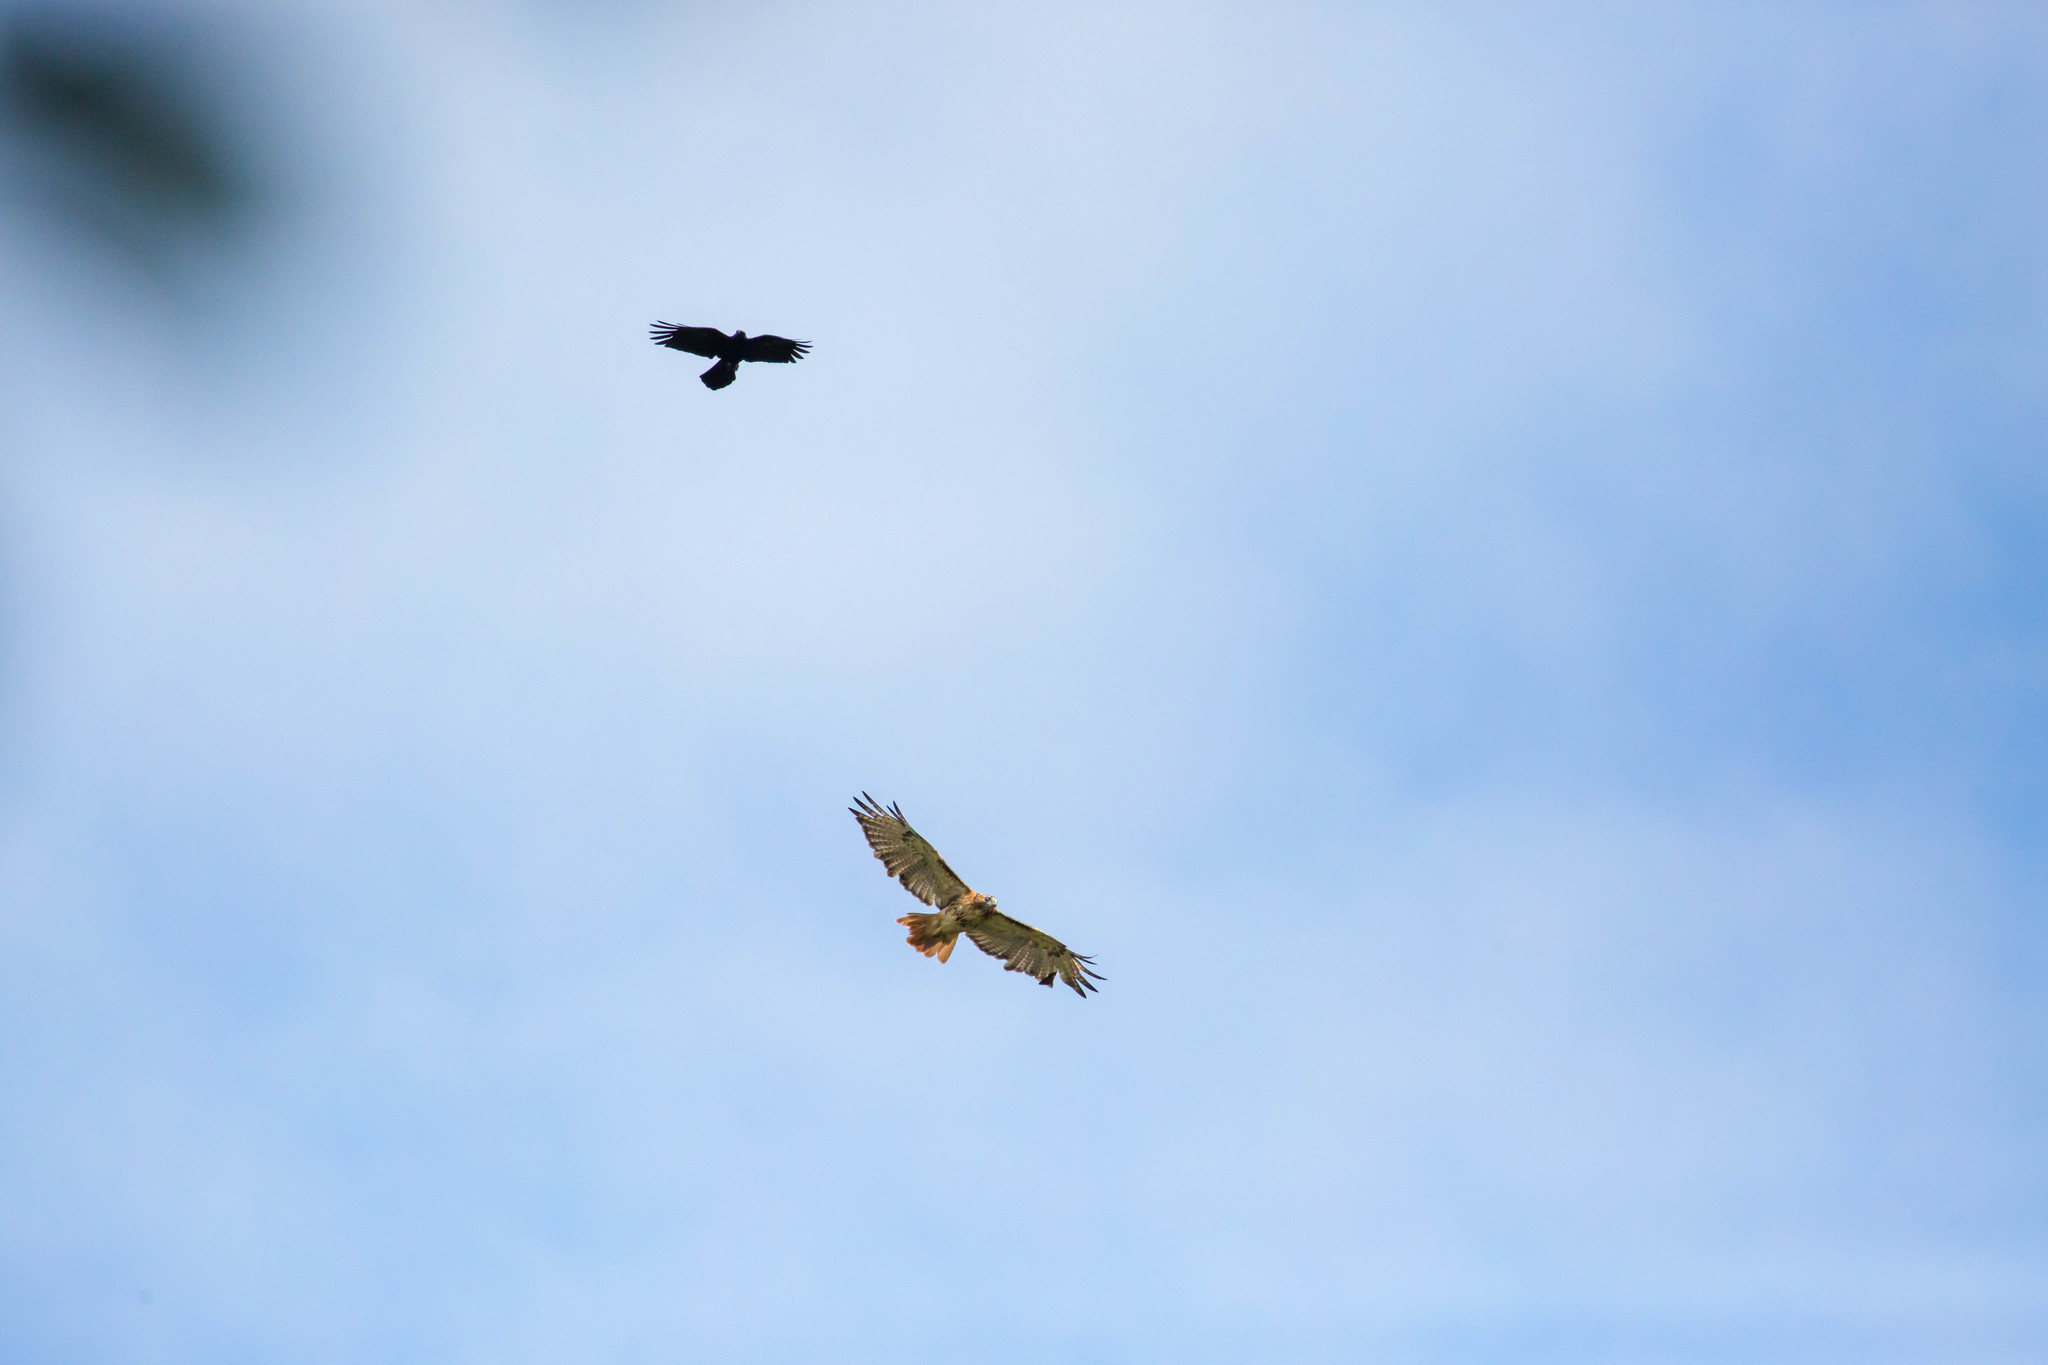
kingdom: Animalia
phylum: Chordata
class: Aves
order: Accipitriformes
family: Accipitridae
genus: Buteo
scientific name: Buteo jamaicensis
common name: Red-tailed hawk
